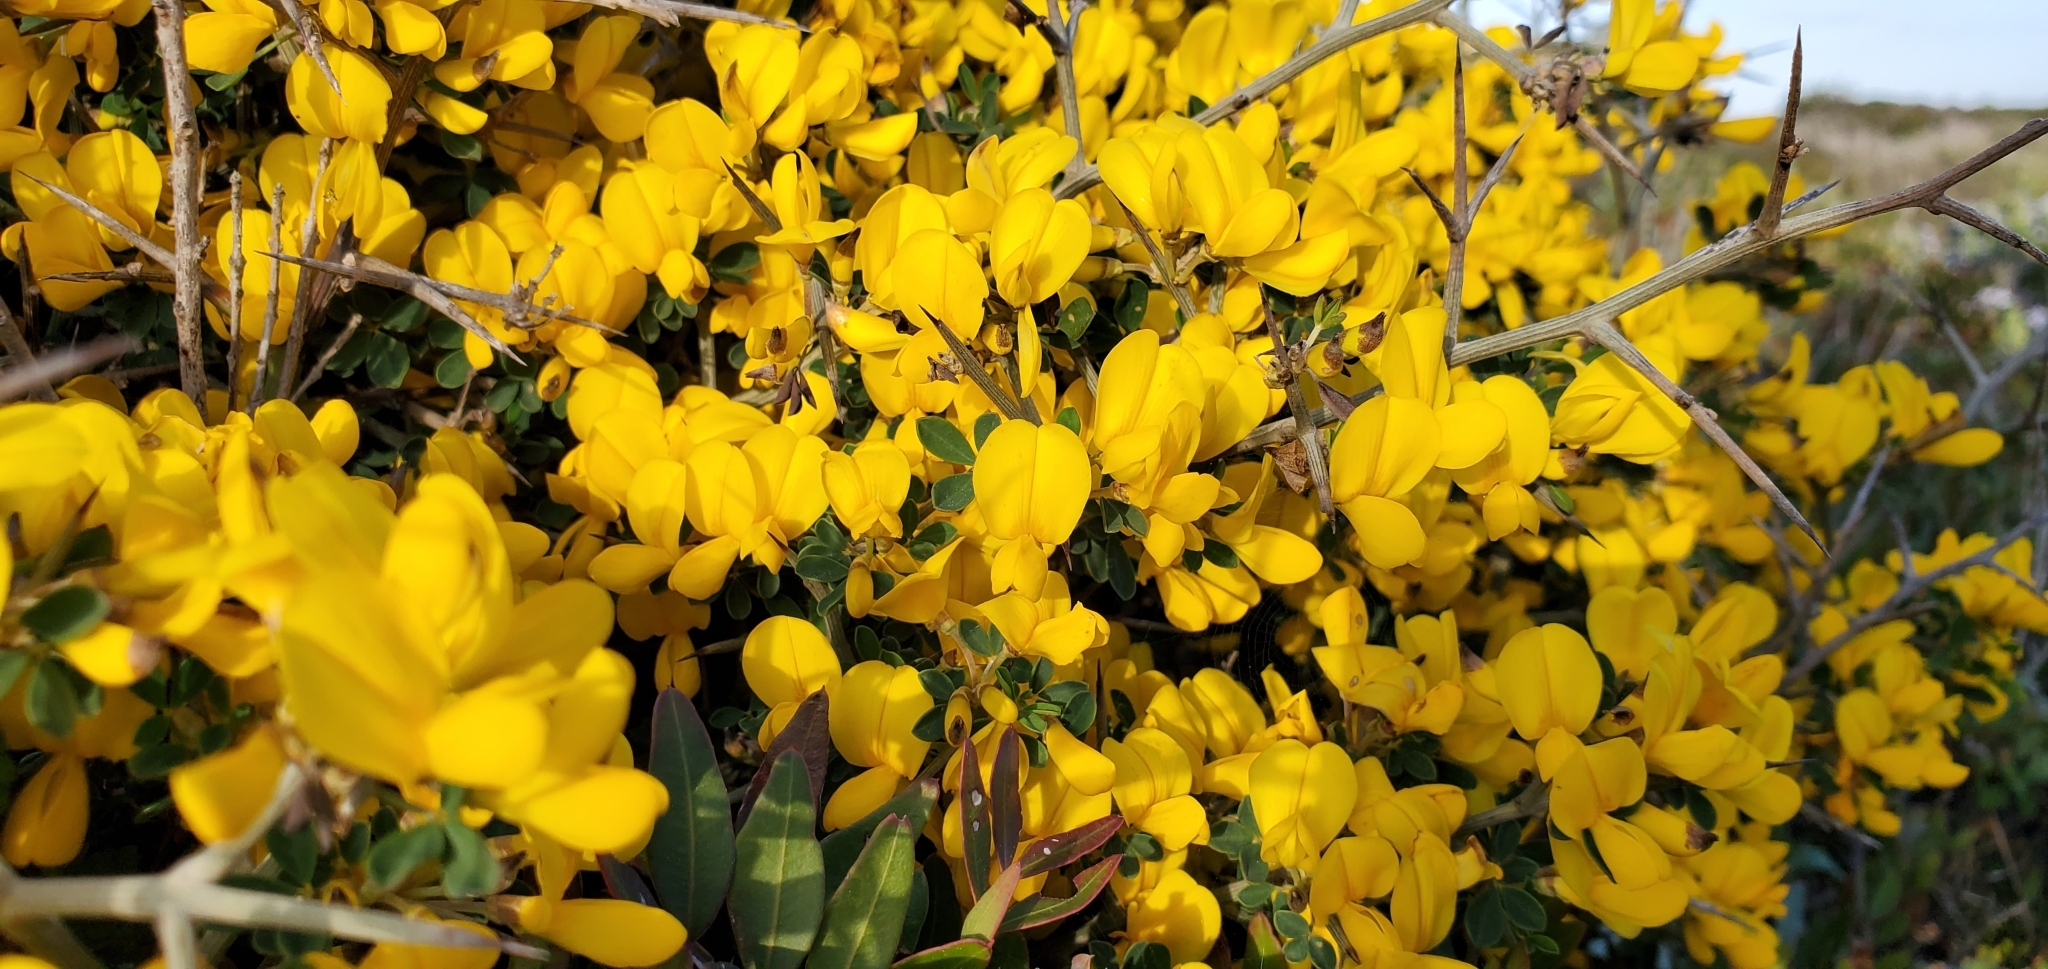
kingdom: Plantae
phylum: Tracheophyta
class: Magnoliopsida
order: Fabales
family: Fabaceae
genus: Calicotome
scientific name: Calicotome infesta
